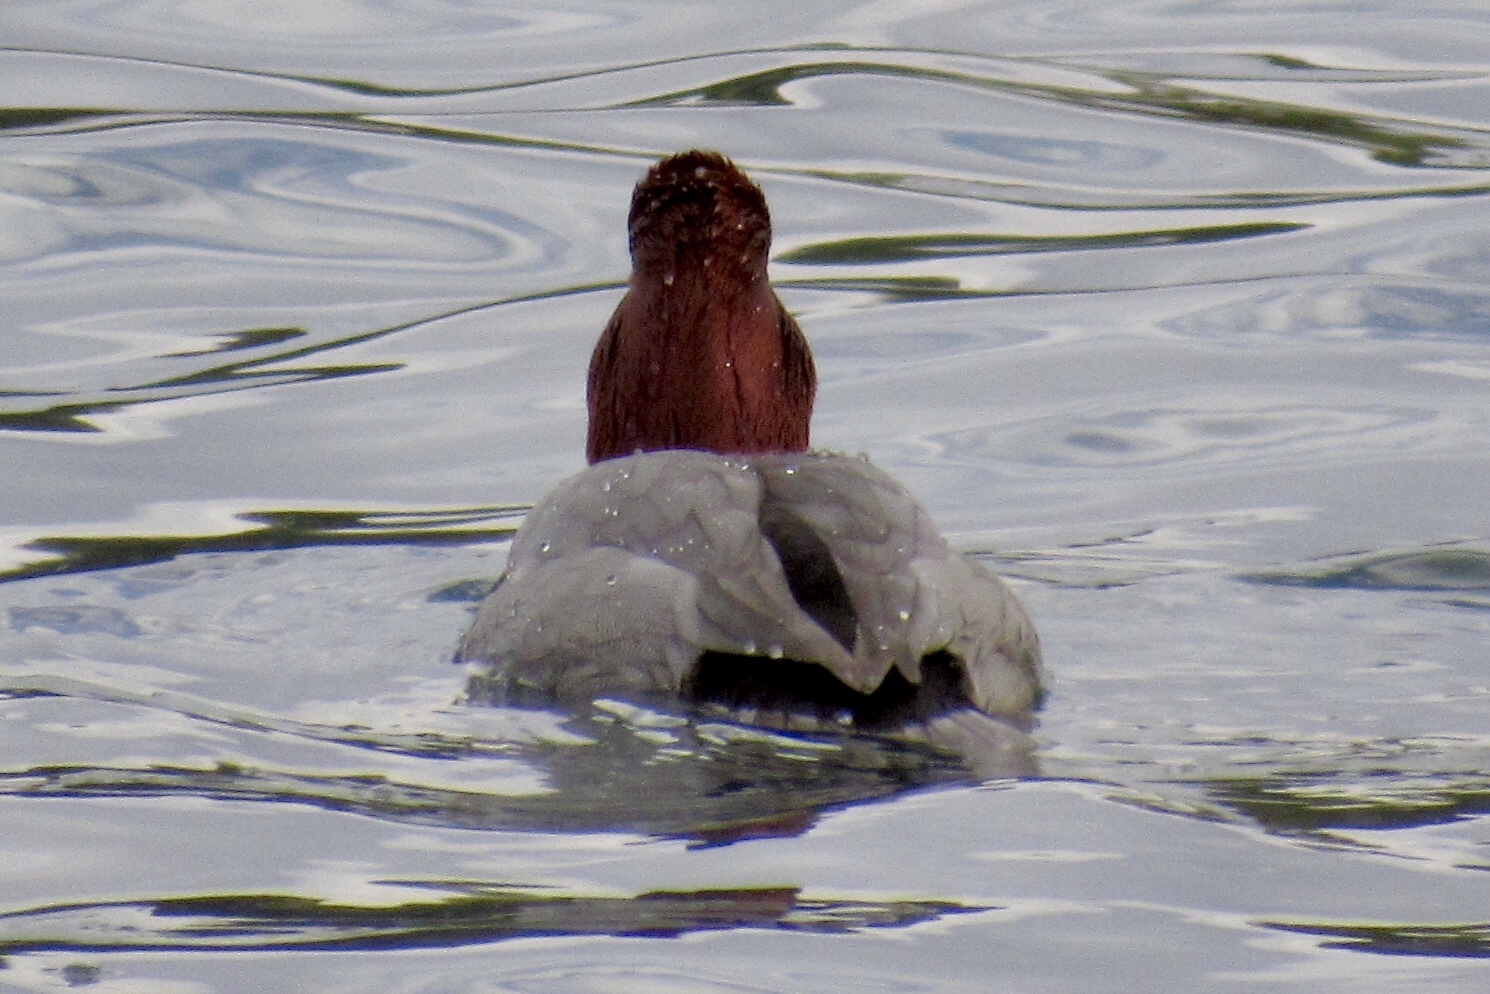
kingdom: Animalia
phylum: Chordata
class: Aves
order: Anseriformes
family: Anatidae
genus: Aythya
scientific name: Aythya americana
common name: Redhead
